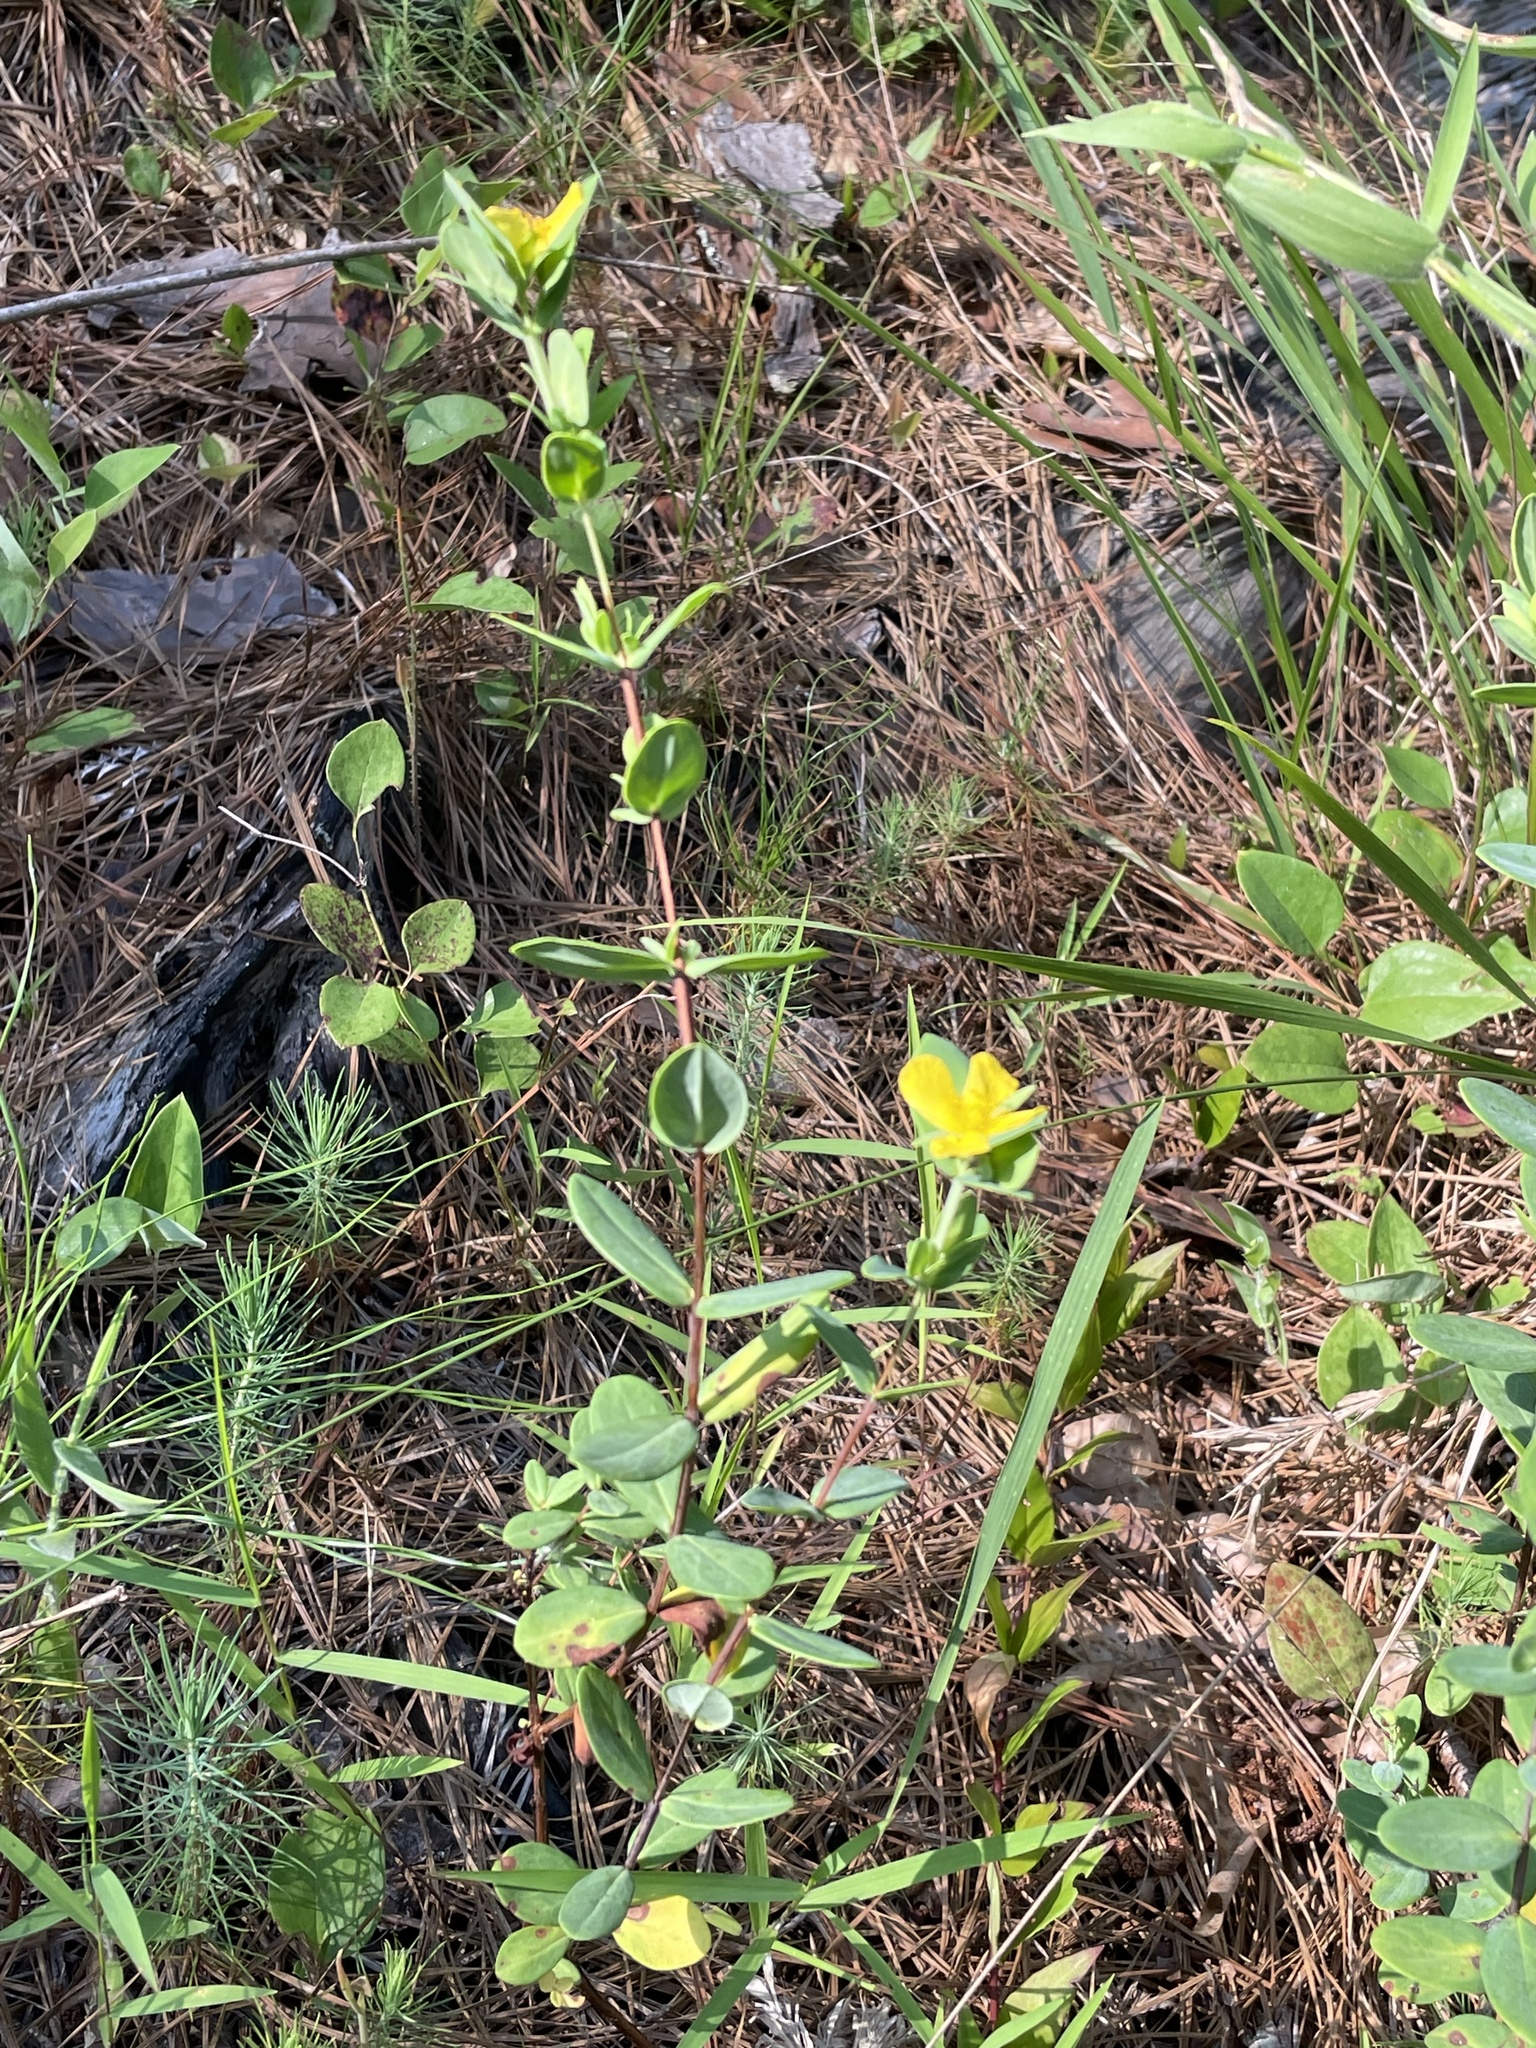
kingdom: Plantae
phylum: Tracheophyta
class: Magnoliopsida
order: Malpighiales
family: Hypericaceae
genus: Hypericum
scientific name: Hypericum crux-andreae
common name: St.-peter's-wort
